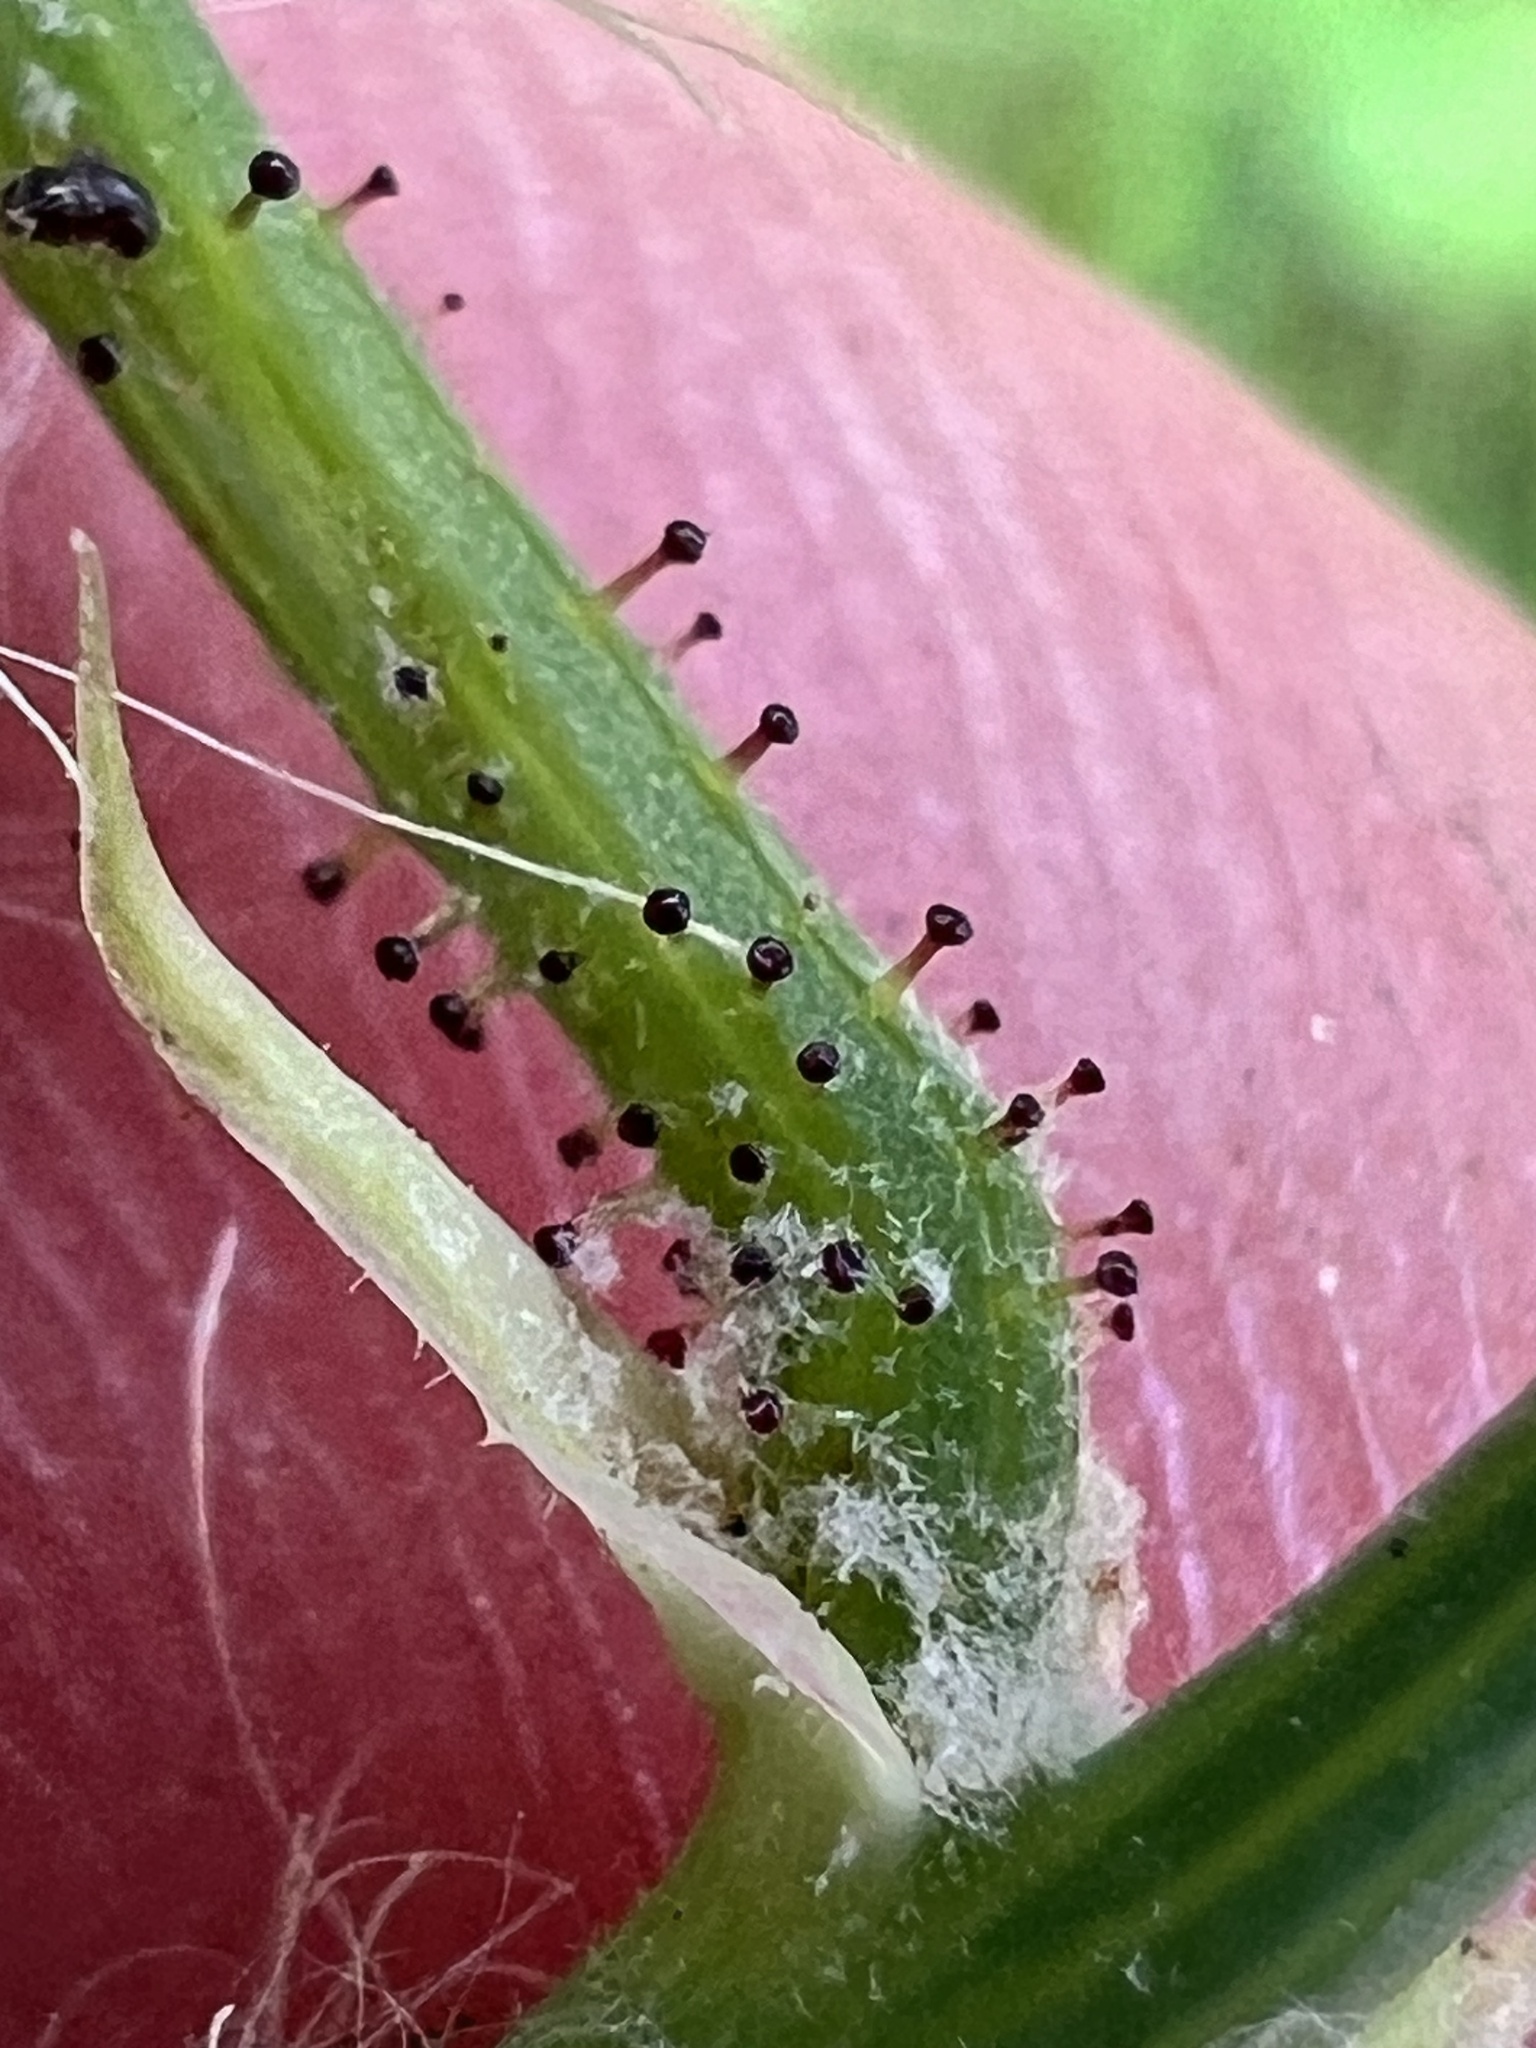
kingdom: Plantae
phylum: Tracheophyta
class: Magnoliopsida
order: Asterales
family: Asteraceae
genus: Sonchus
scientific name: Sonchus asper
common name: Prickly sow-thistle
